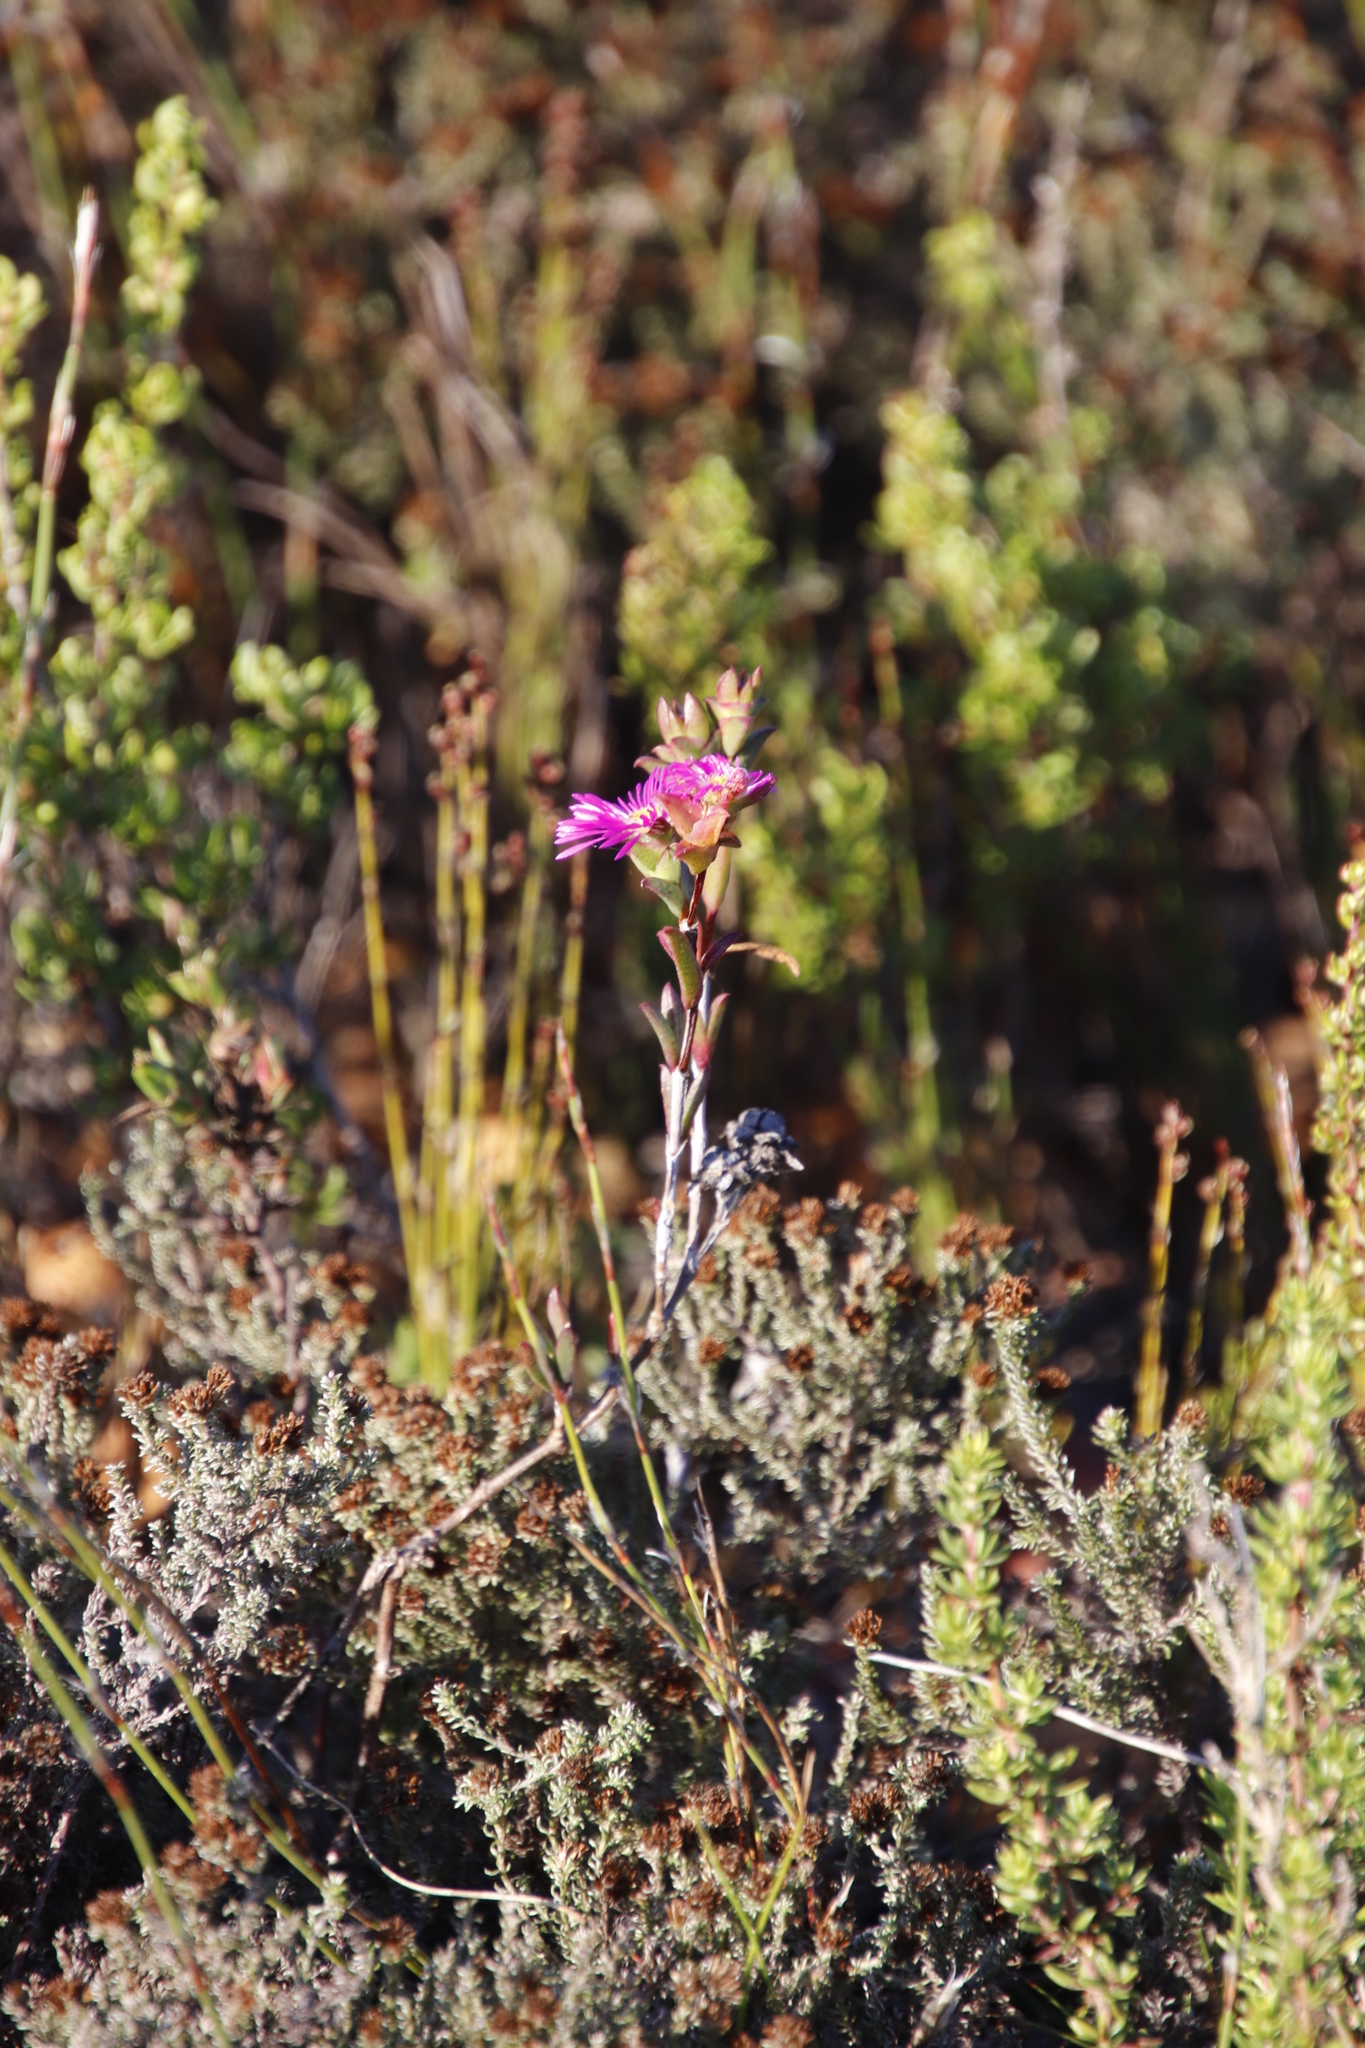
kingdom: Plantae
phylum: Tracheophyta
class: Magnoliopsida
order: Caryophyllales
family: Aizoaceae
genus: Erepsia
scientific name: Erepsia anceps
